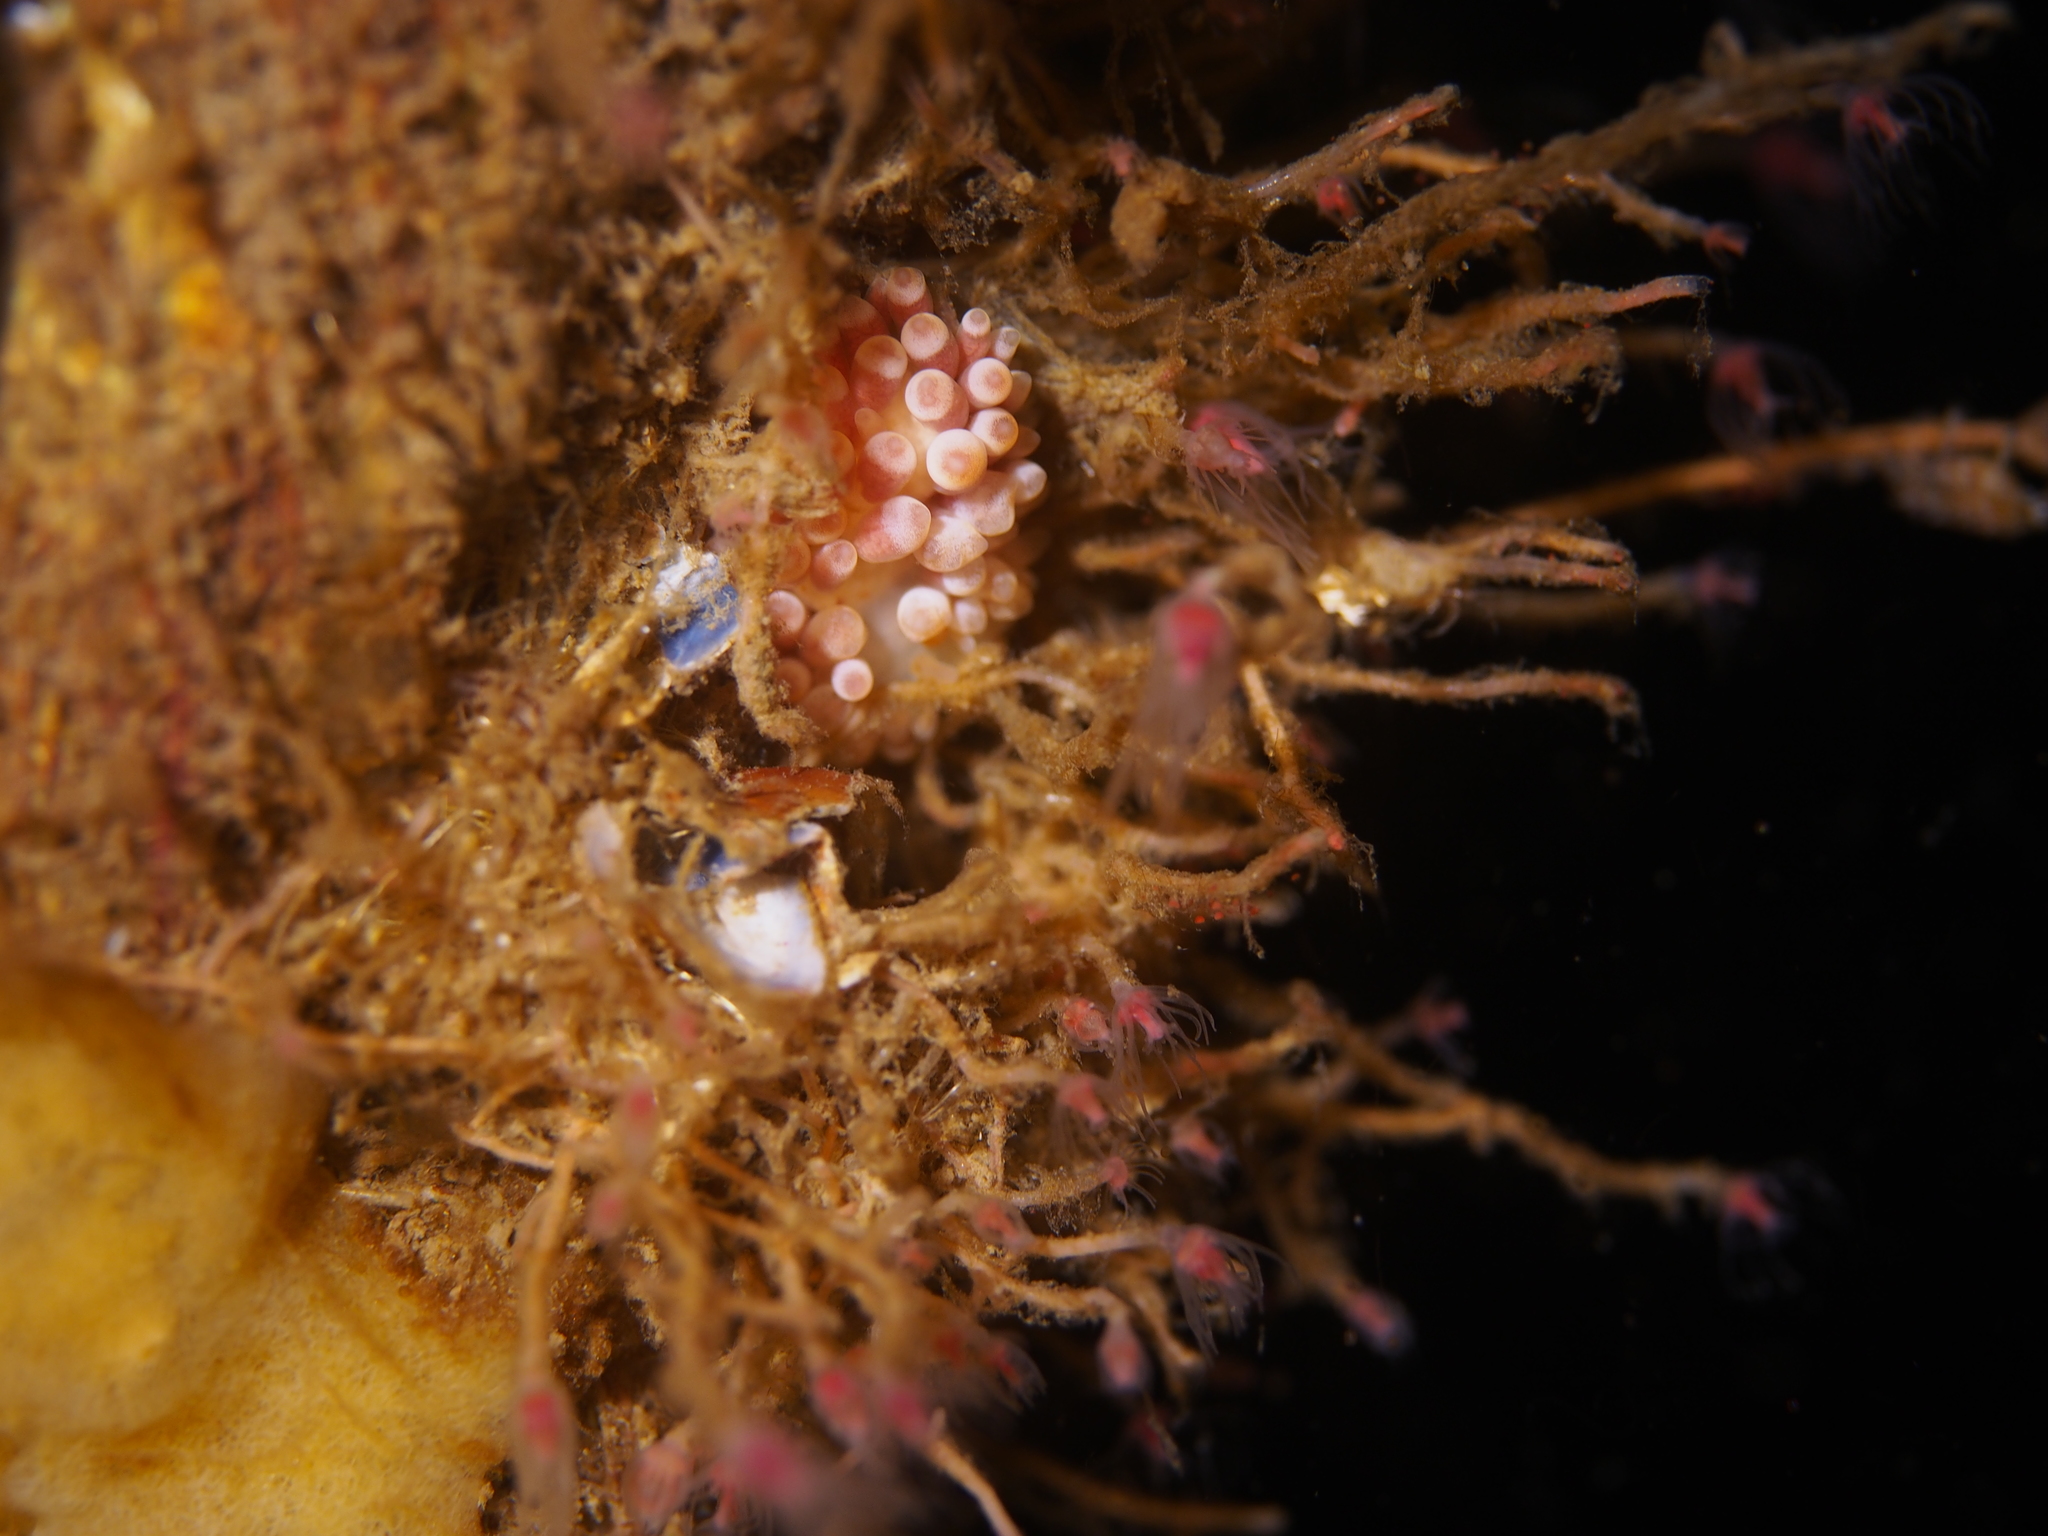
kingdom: Animalia
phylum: Mollusca
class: Gastropoda
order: Nudibranchia
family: Trinchesiidae
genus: Catriona
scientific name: Catriona aurantia
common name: Corange-tip cuthona
